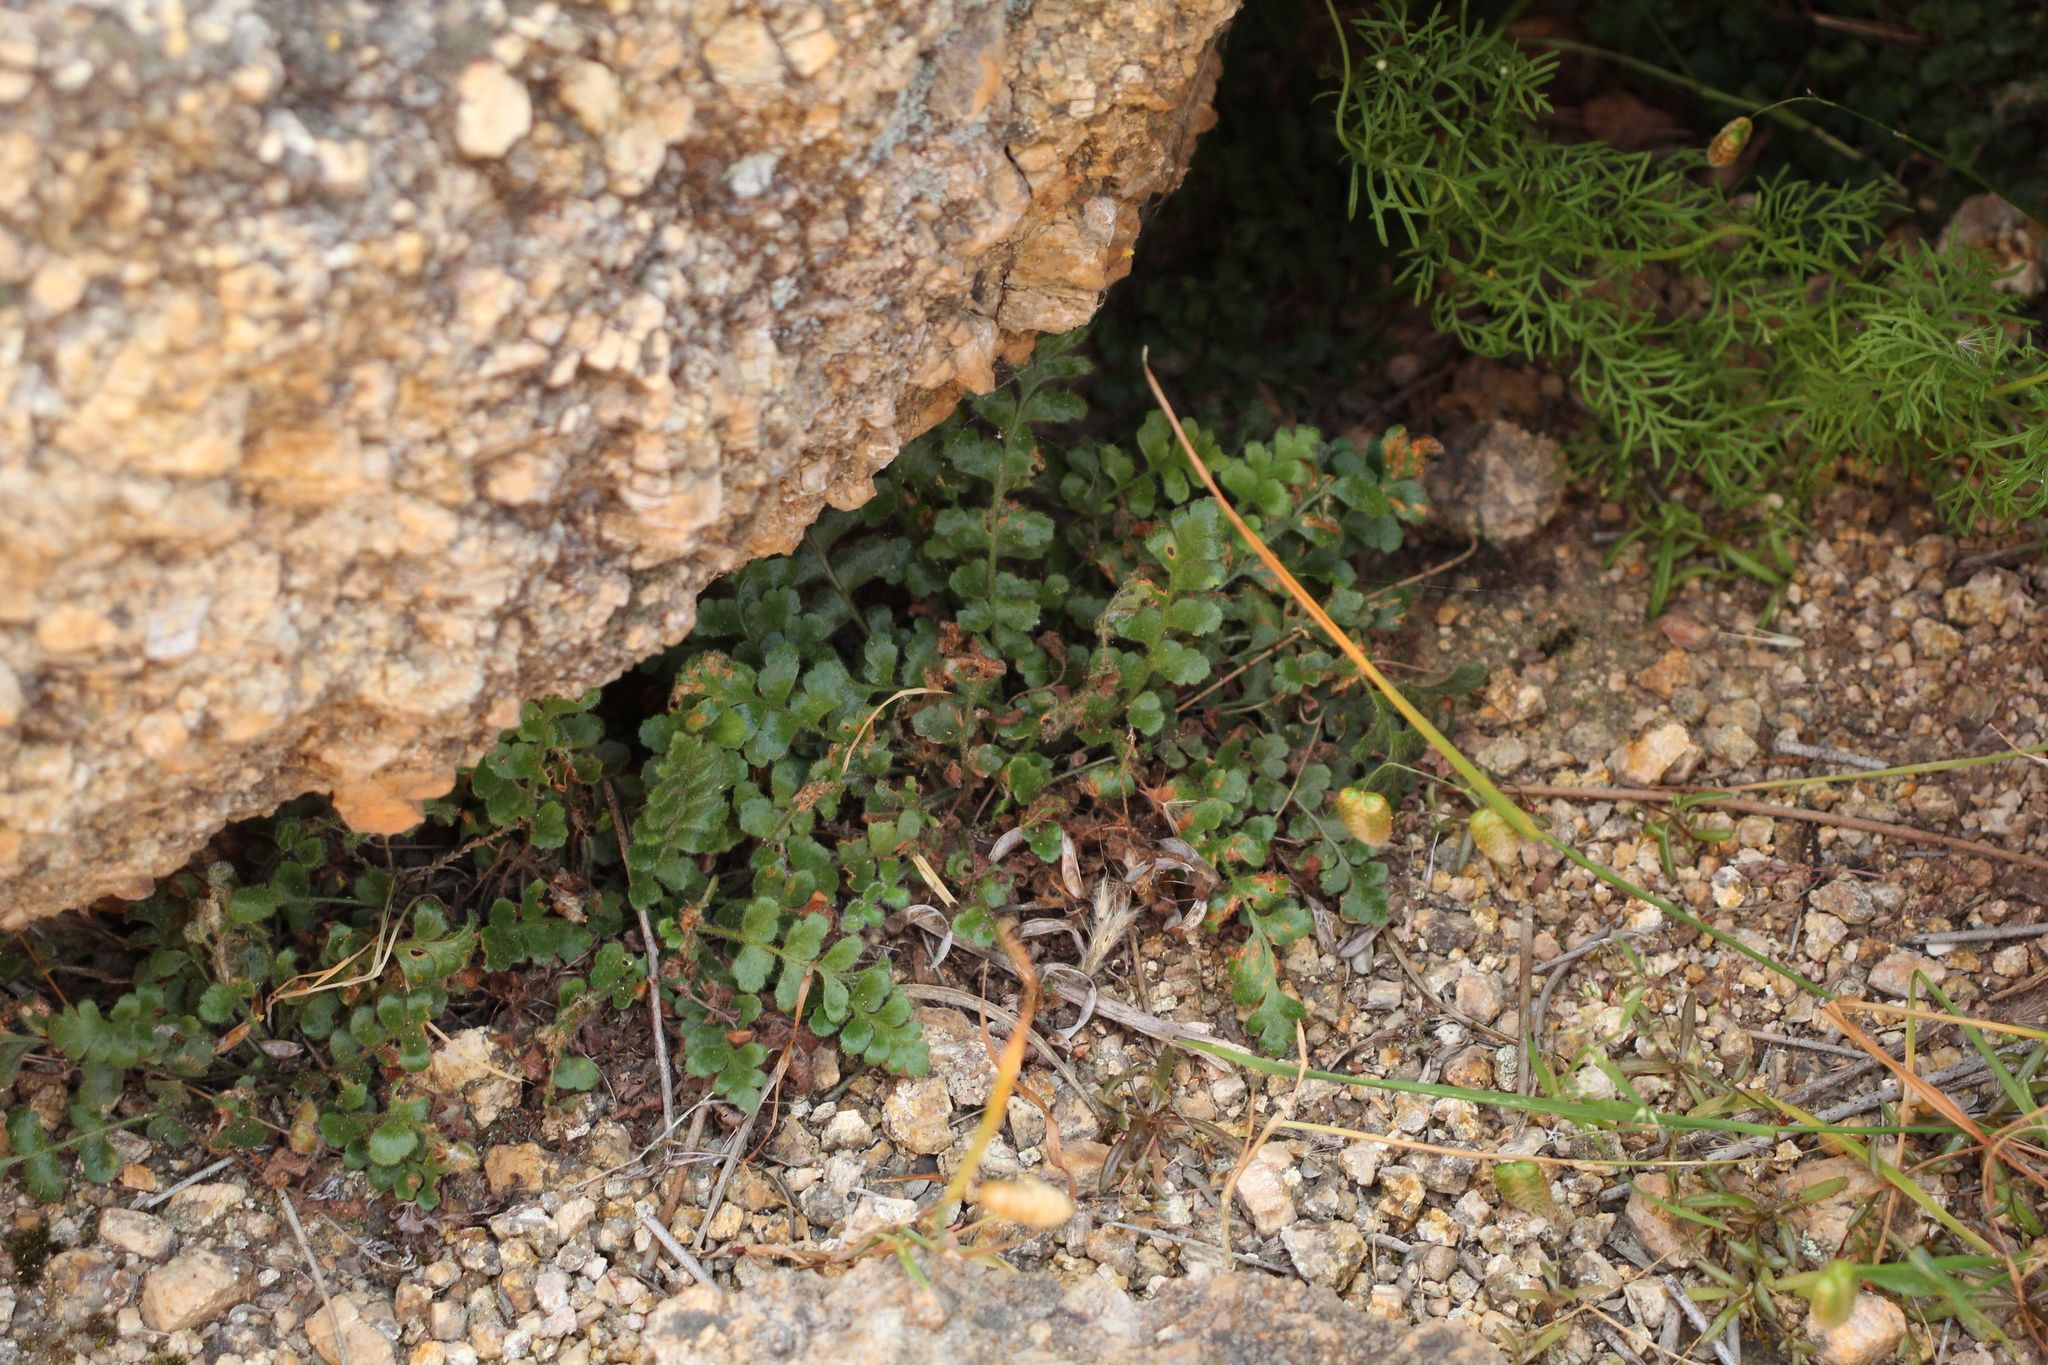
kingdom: Plantae
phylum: Tracheophyta
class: Polypodiopsida
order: Polypodiales
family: Aspleniaceae
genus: Asplenium
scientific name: Asplenium subglandulosum
